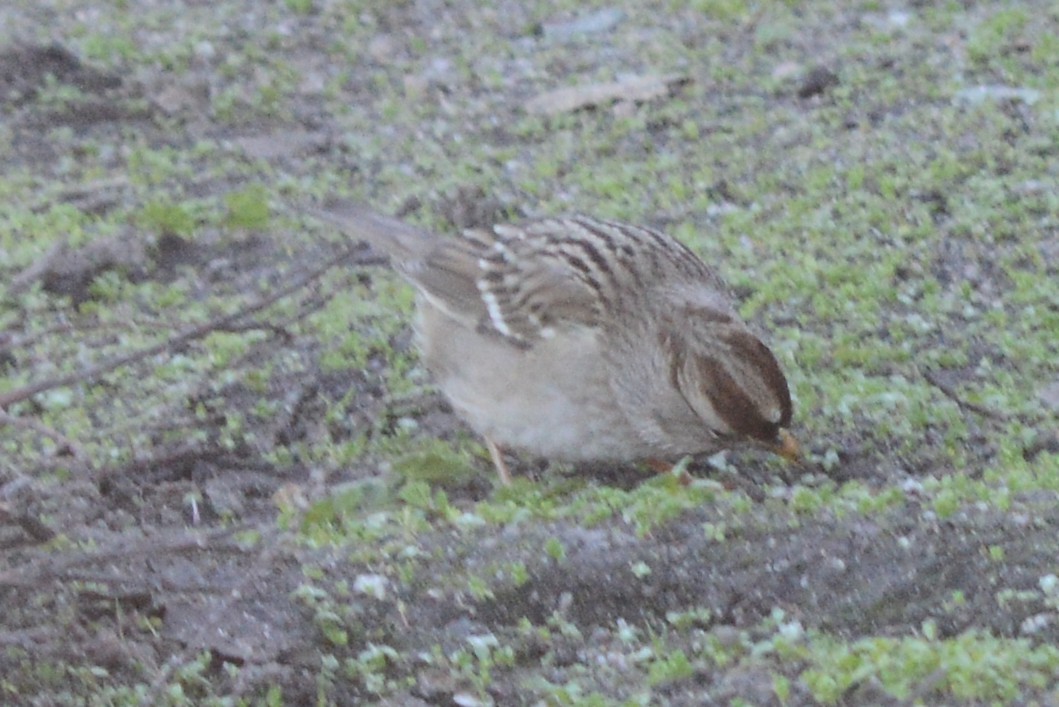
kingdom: Animalia
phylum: Chordata
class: Aves
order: Passeriformes
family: Passerellidae
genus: Zonotrichia
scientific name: Zonotrichia leucophrys
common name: White-crowned sparrow
